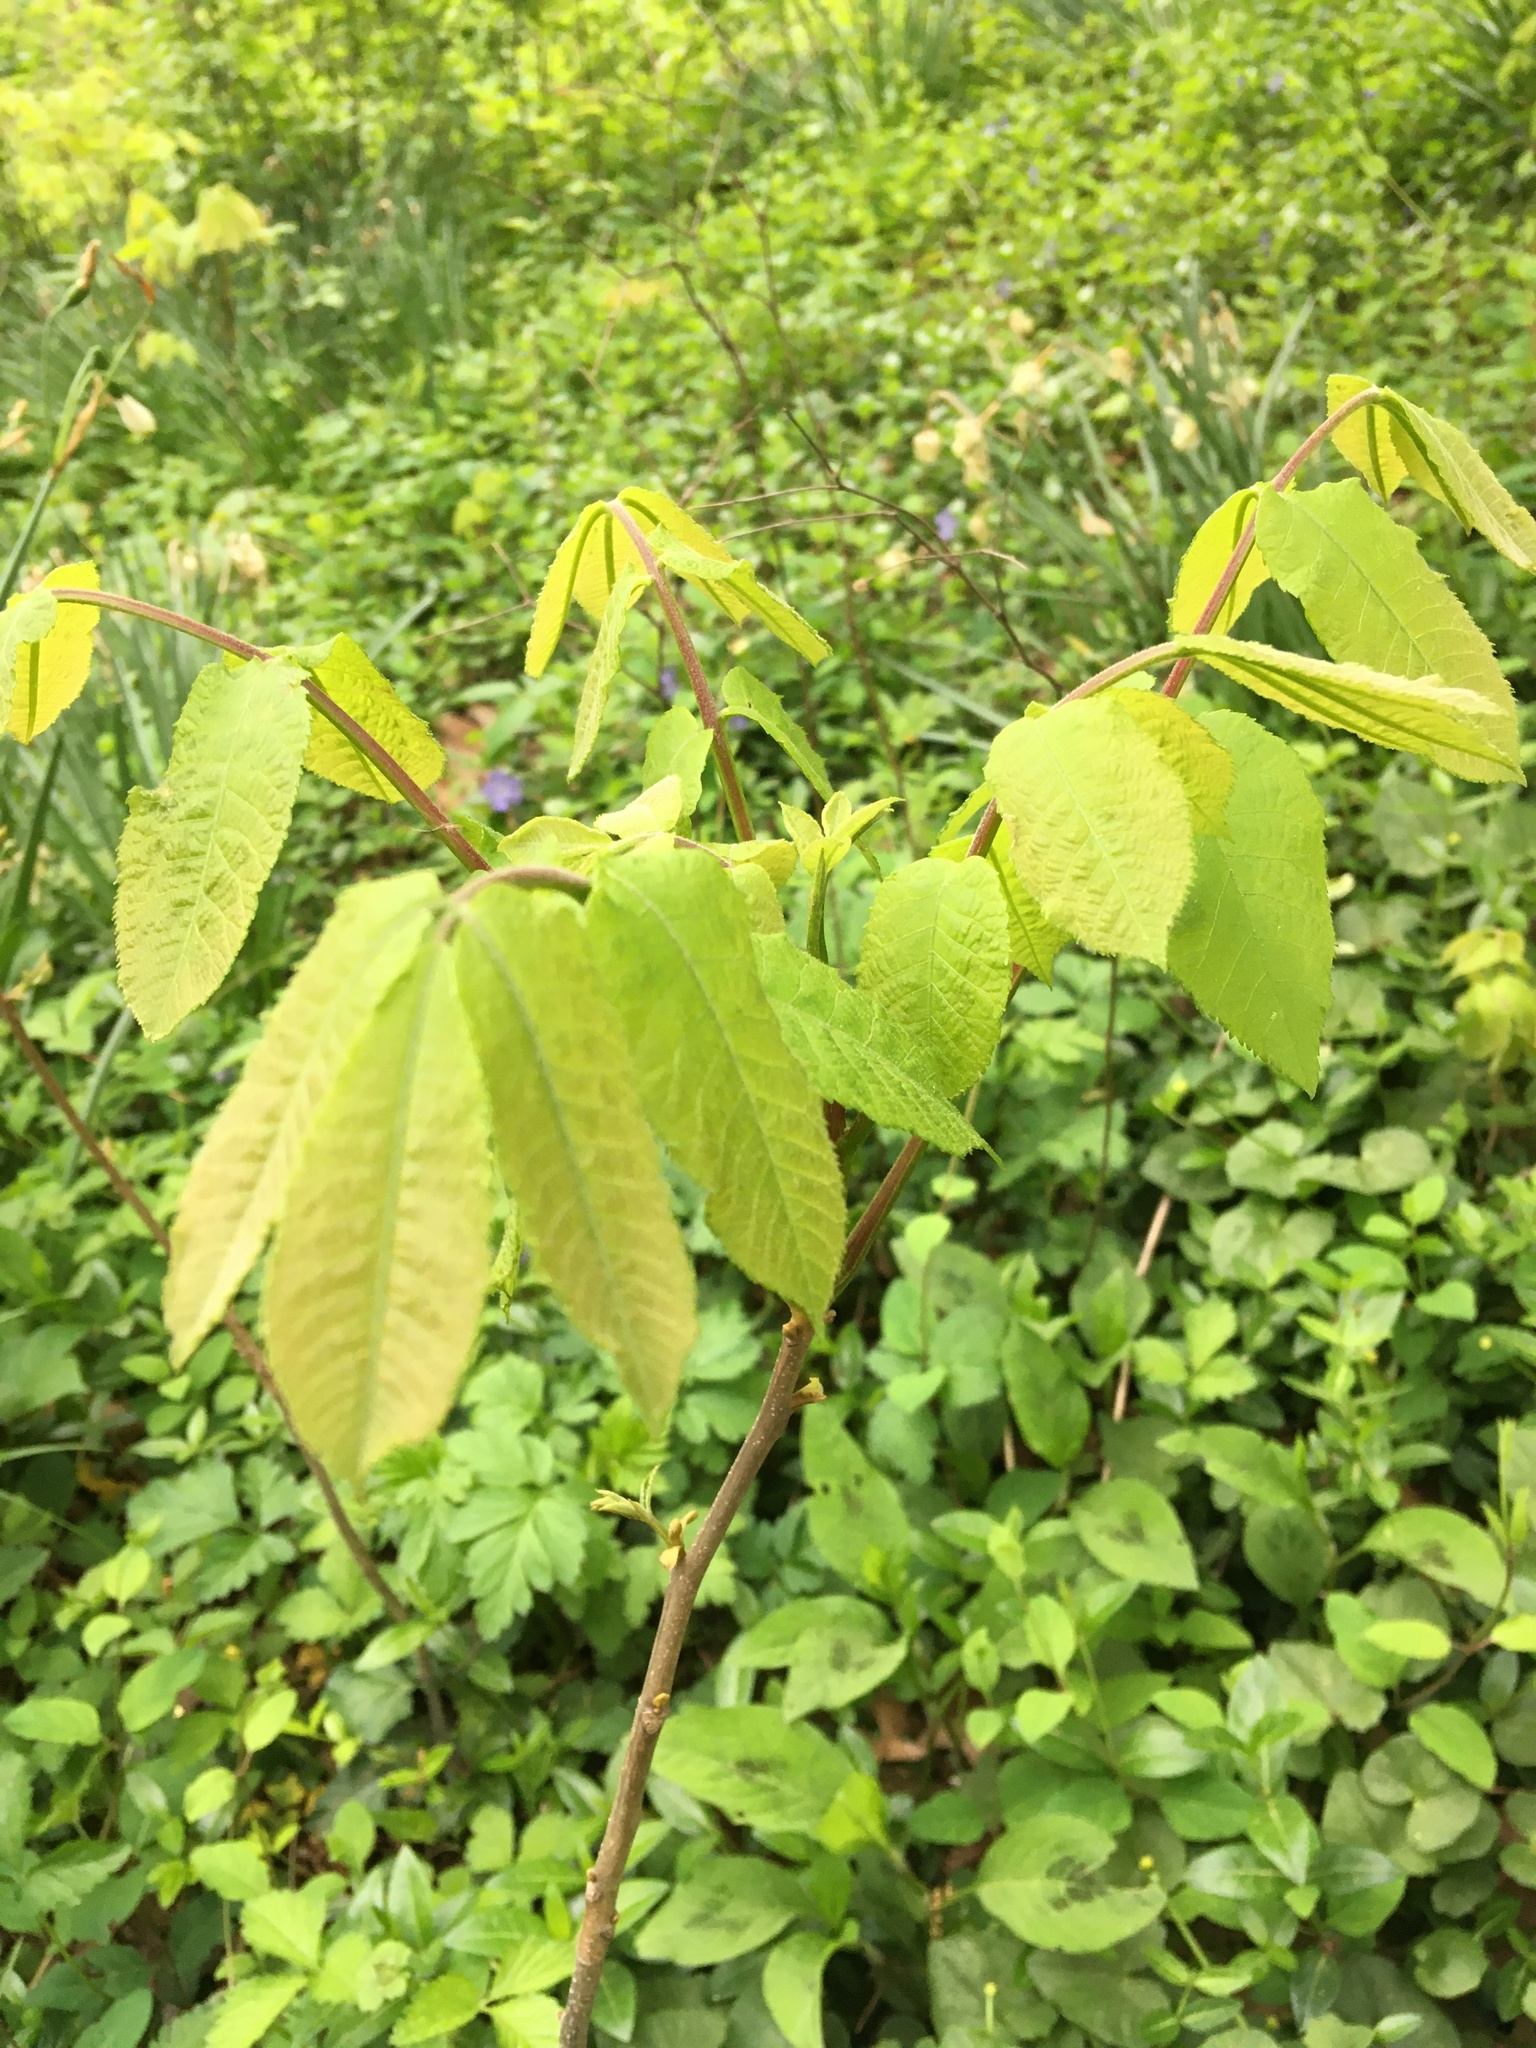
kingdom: Plantae
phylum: Tracheophyta
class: Magnoliopsida
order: Fagales
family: Juglandaceae
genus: Carya
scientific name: Carya cordiformis
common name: Bitternut hickory
